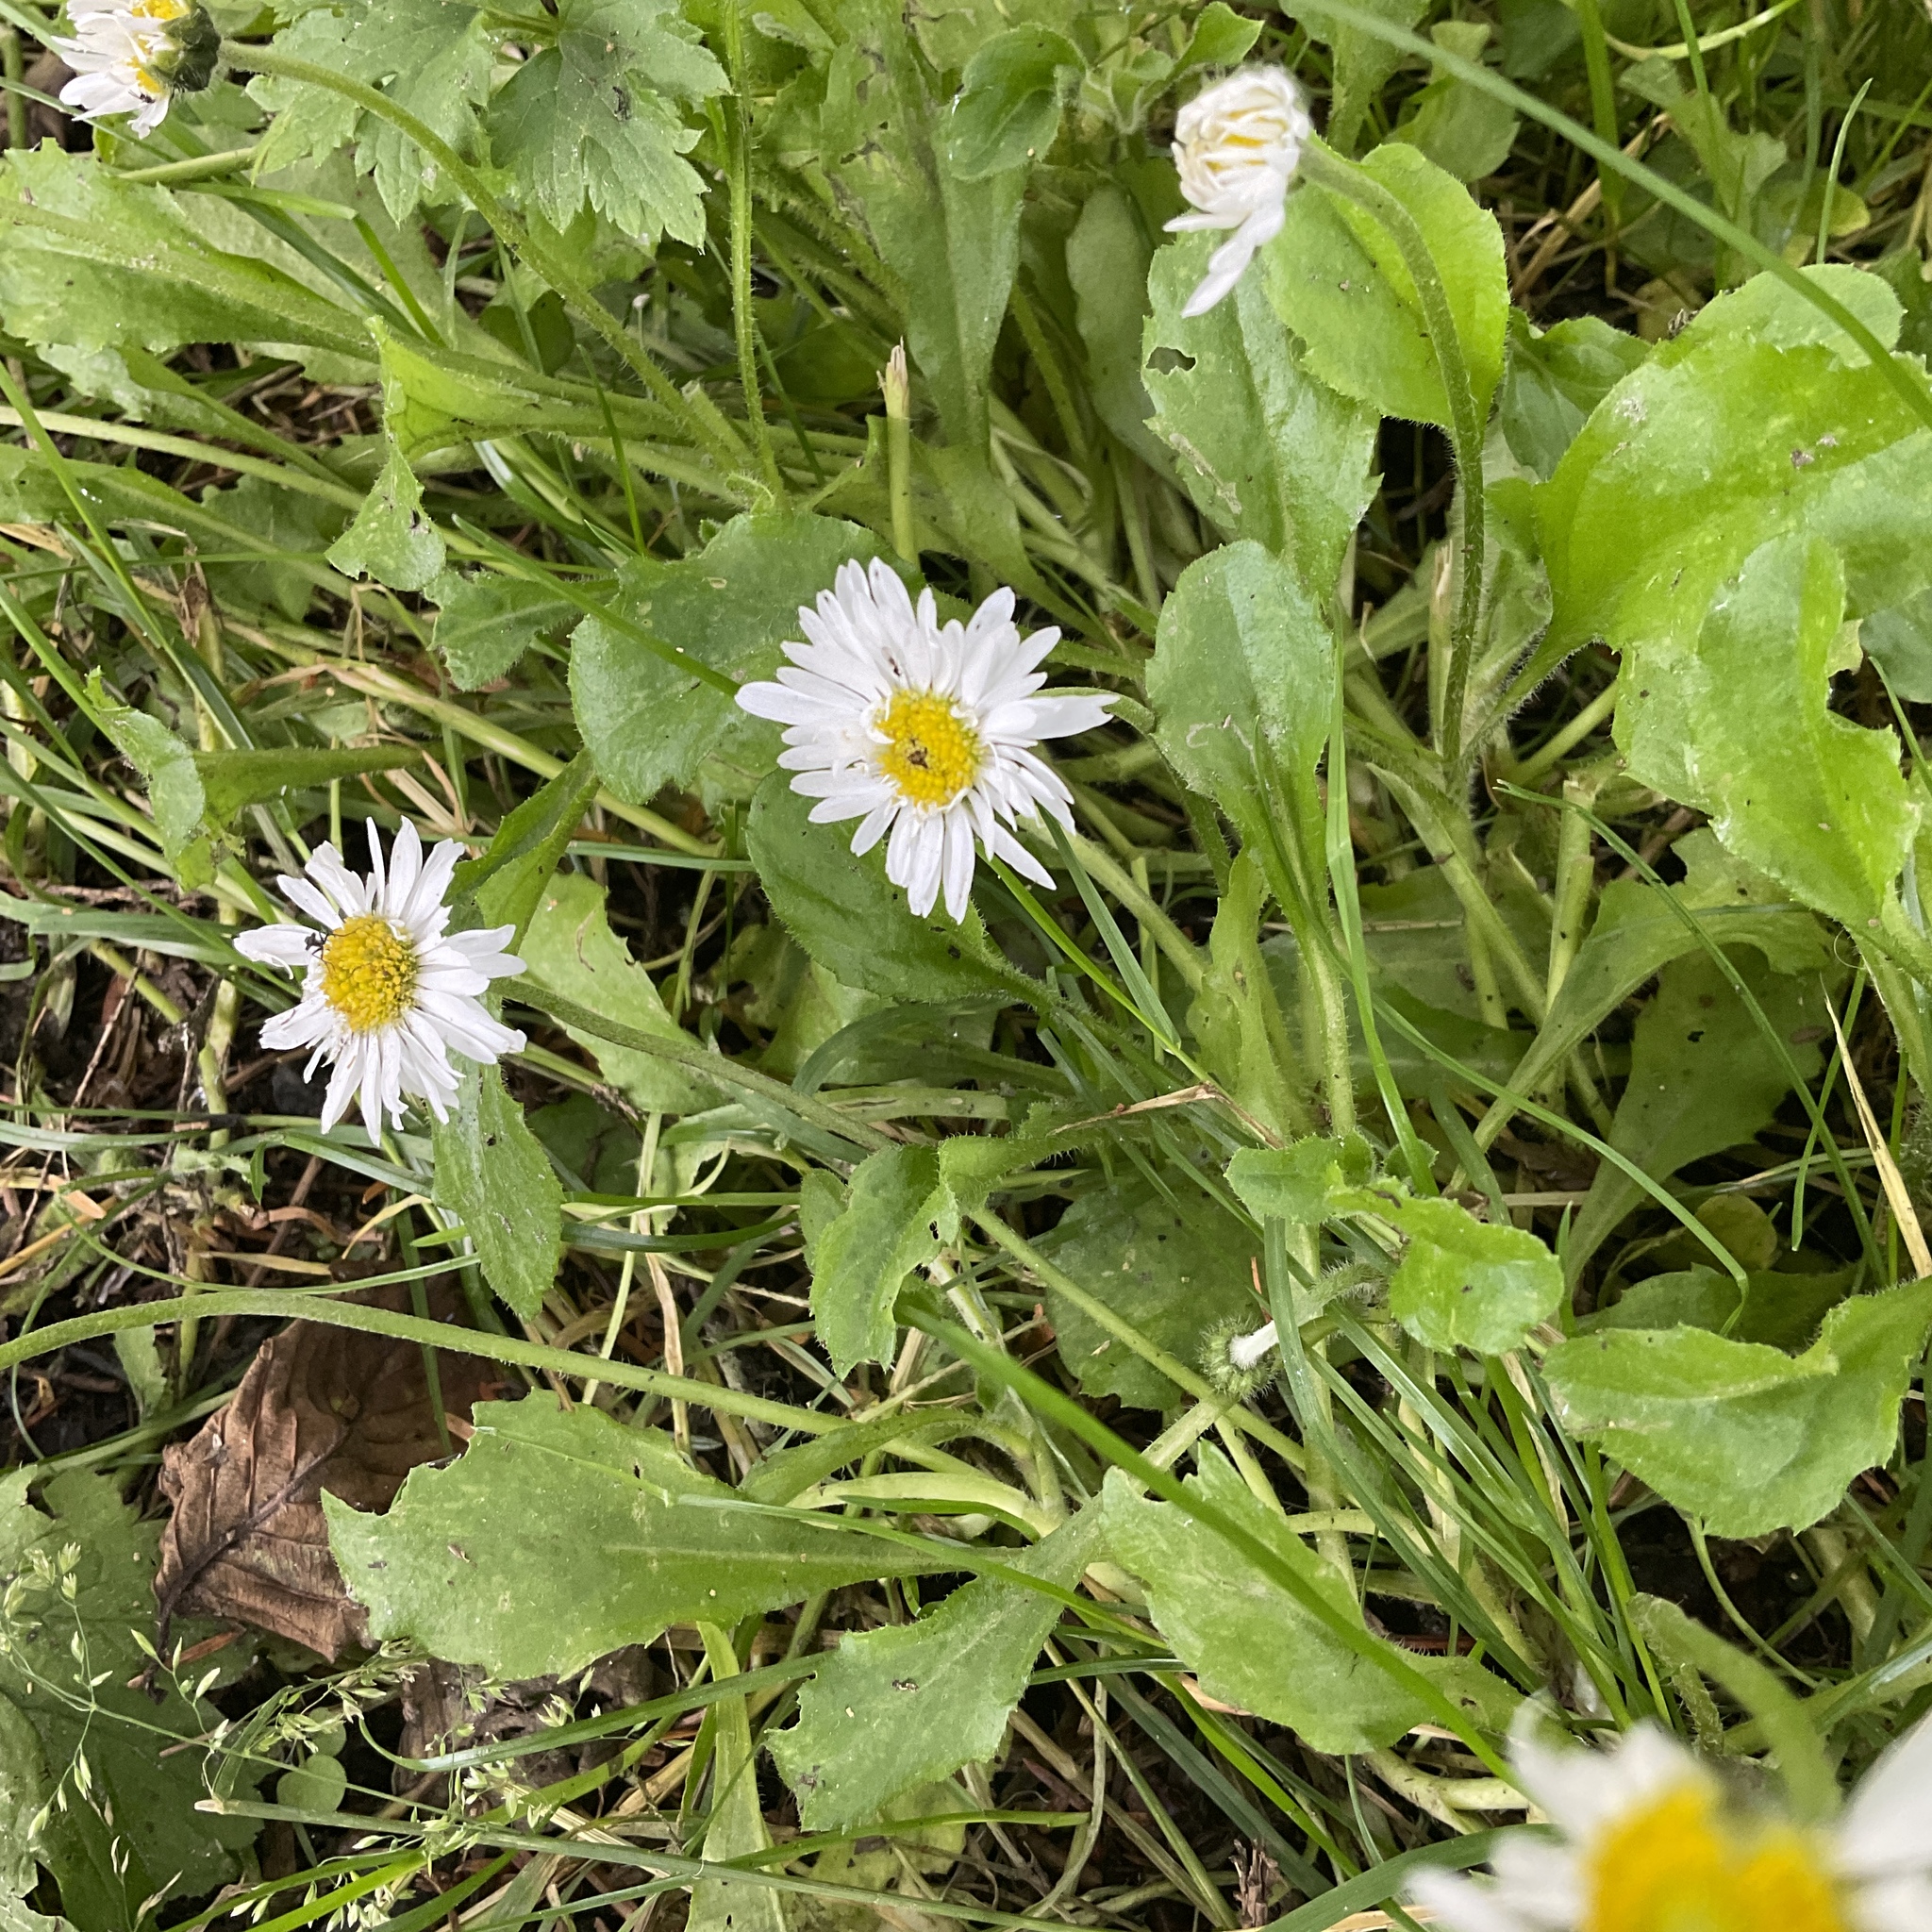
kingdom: Plantae
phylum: Tracheophyta
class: Magnoliopsida
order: Asterales
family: Asteraceae
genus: Bellis
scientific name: Bellis perennis
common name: Lawndaisy
